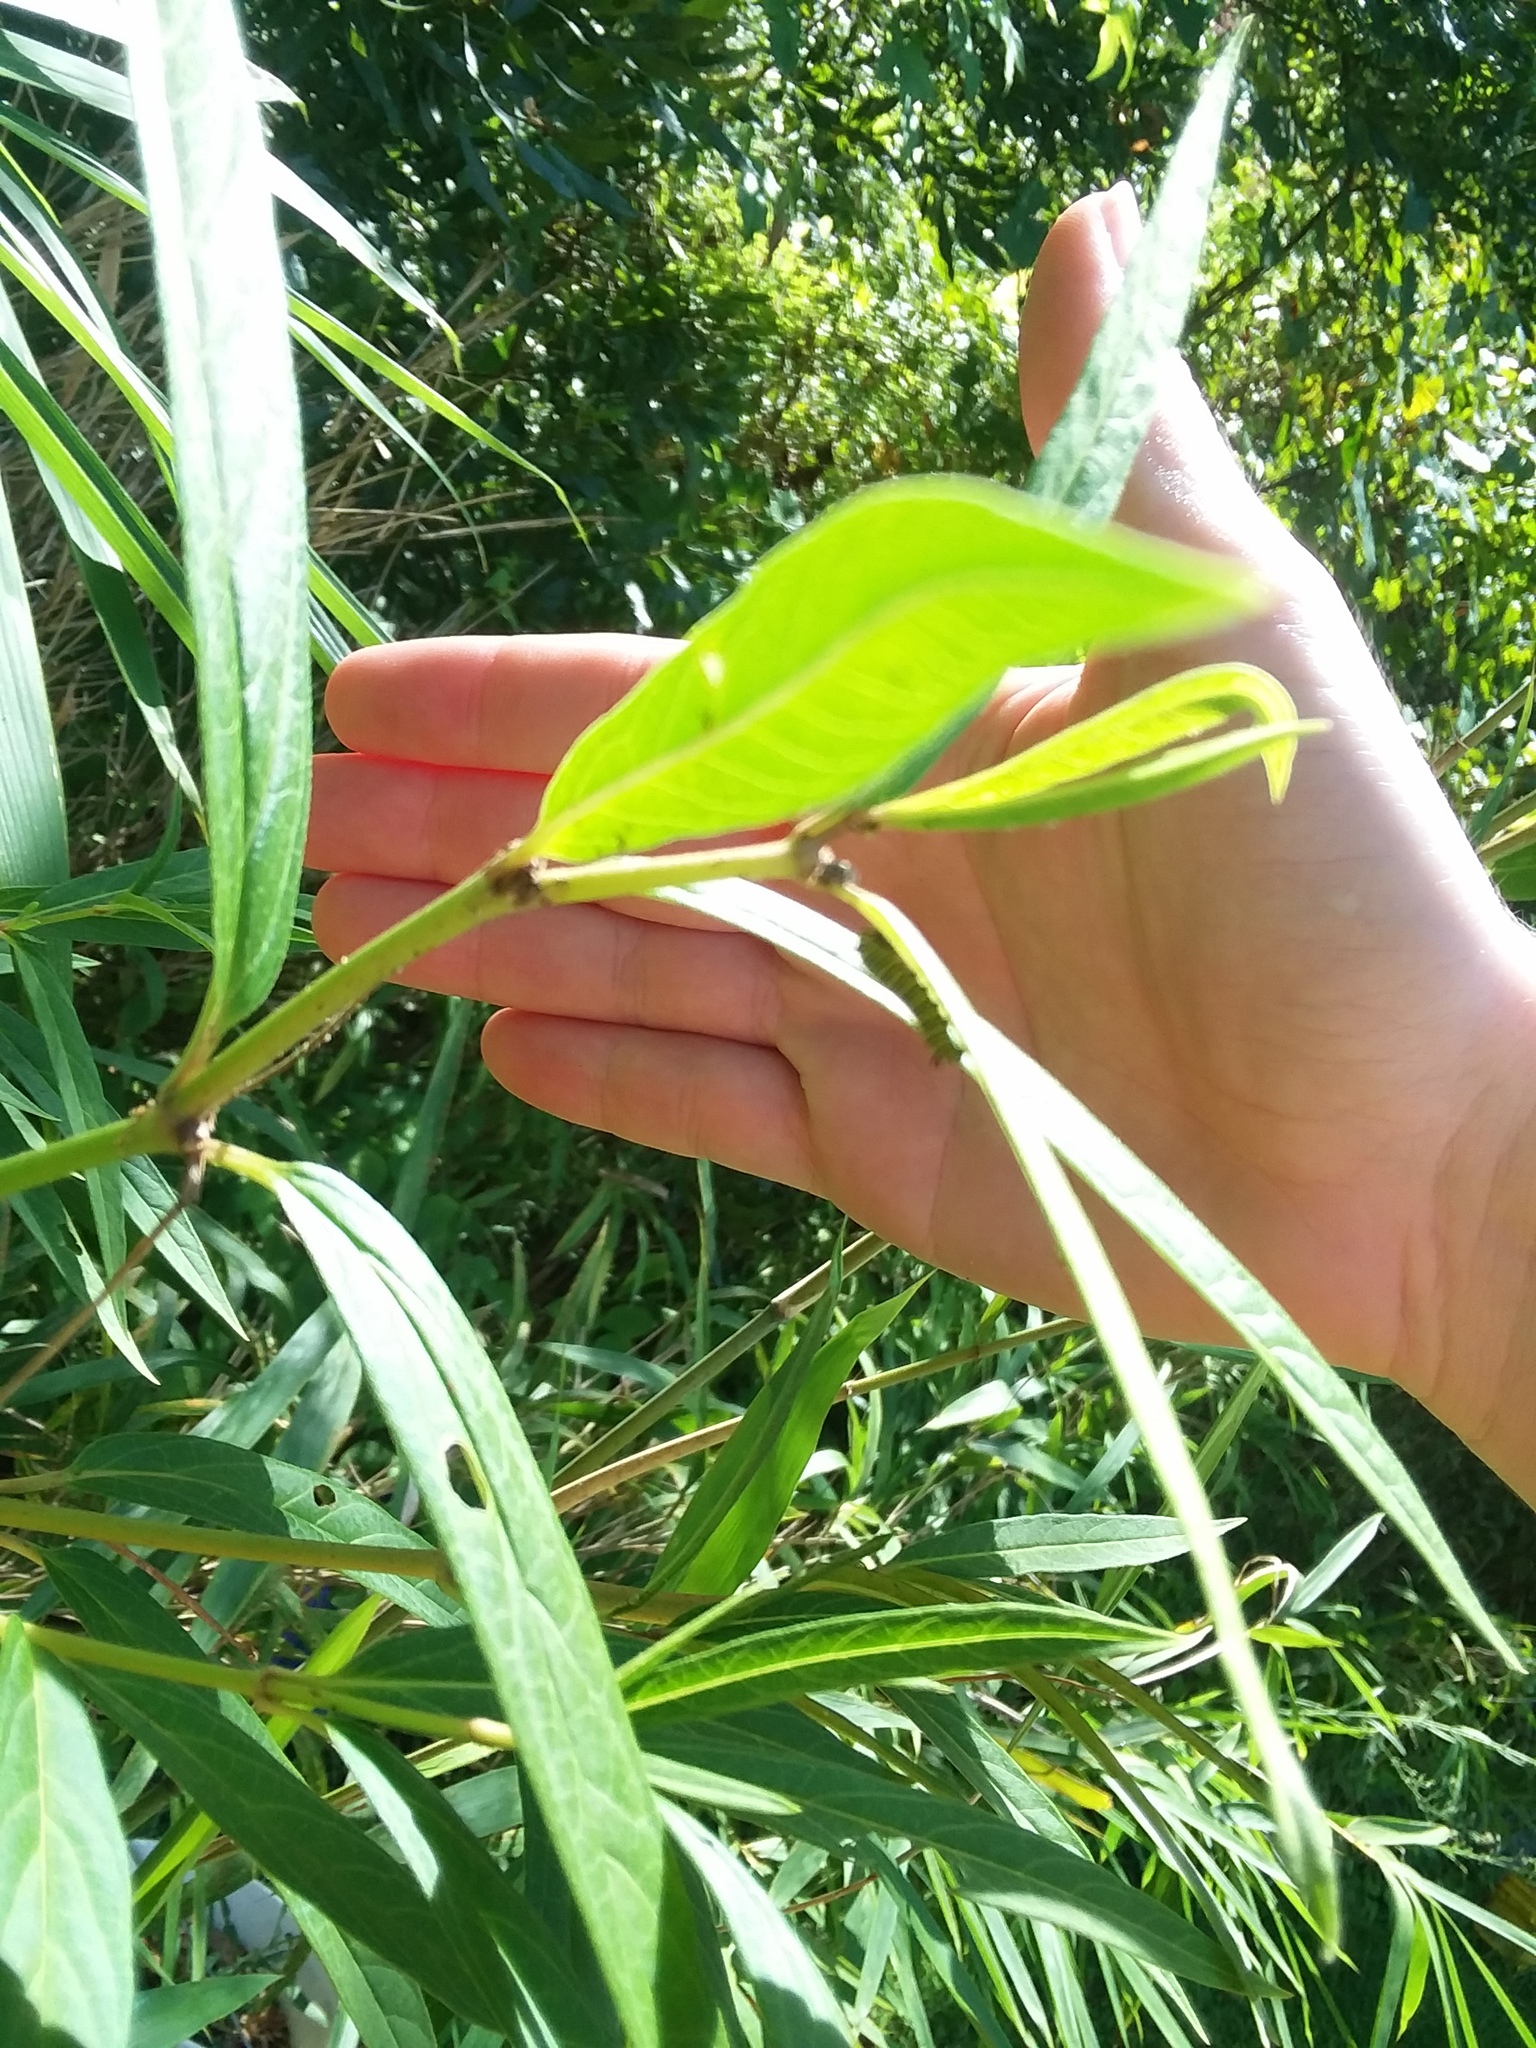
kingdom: Animalia
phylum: Arthropoda
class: Insecta
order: Lepidoptera
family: Nymphalidae
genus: Danaus
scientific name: Danaus plexippus
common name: Monarch
